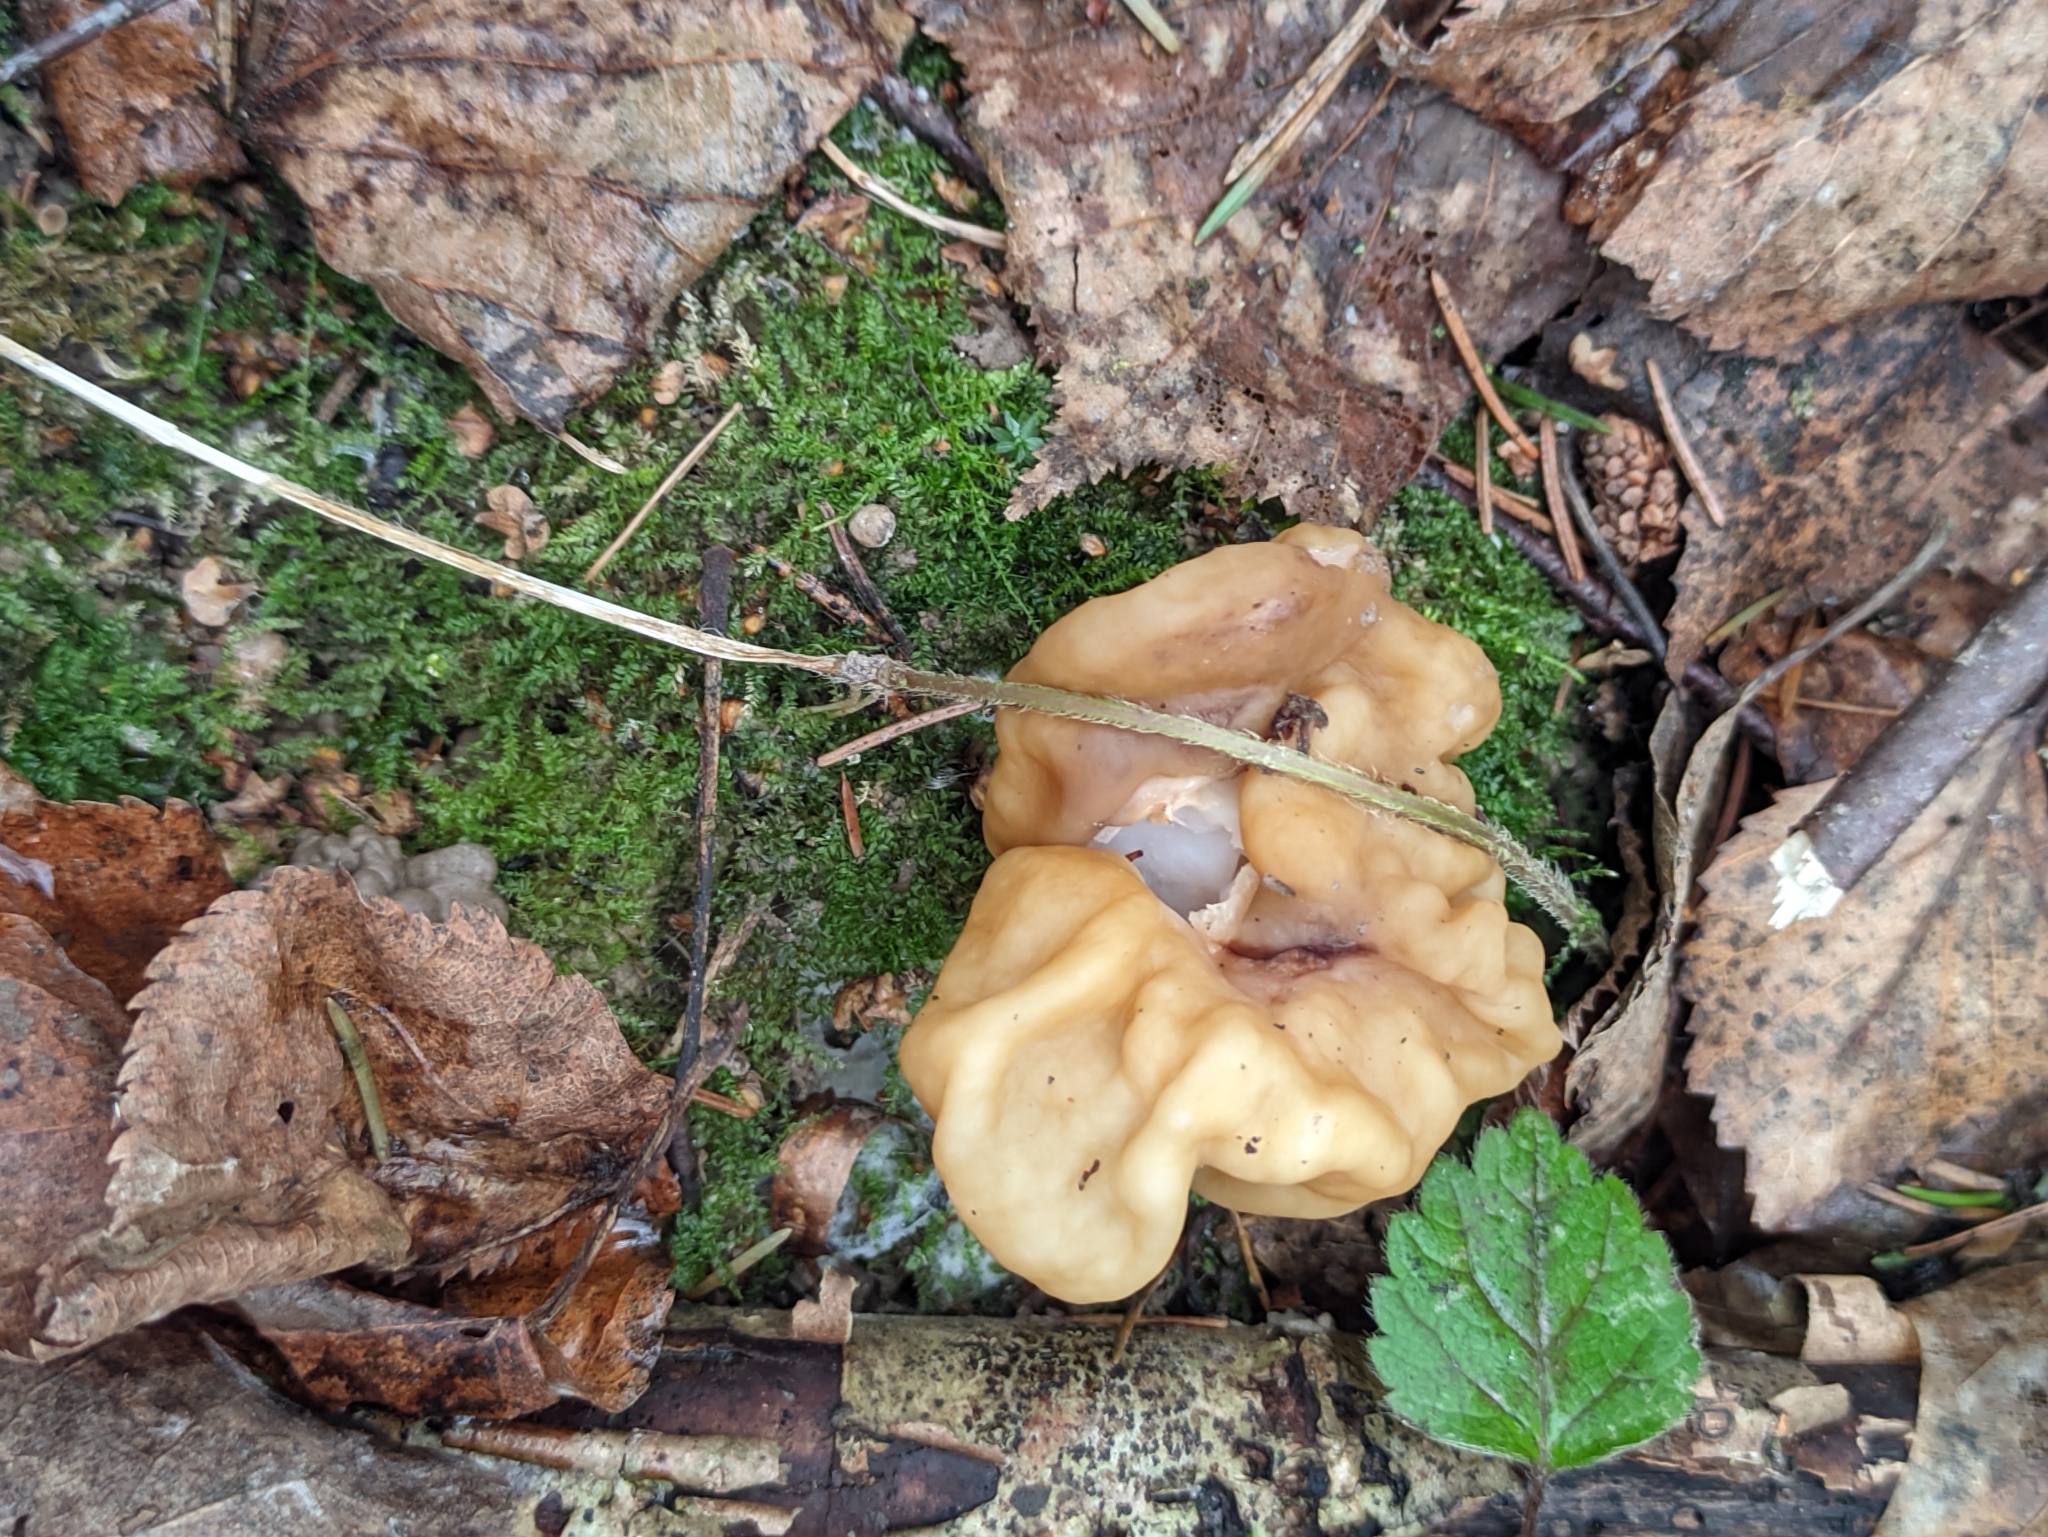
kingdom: Fungi
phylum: Ascomycota
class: Pezizomycetes
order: Pezizales
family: Discinaceae
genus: Gyromitra
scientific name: Gyromitra gigas
